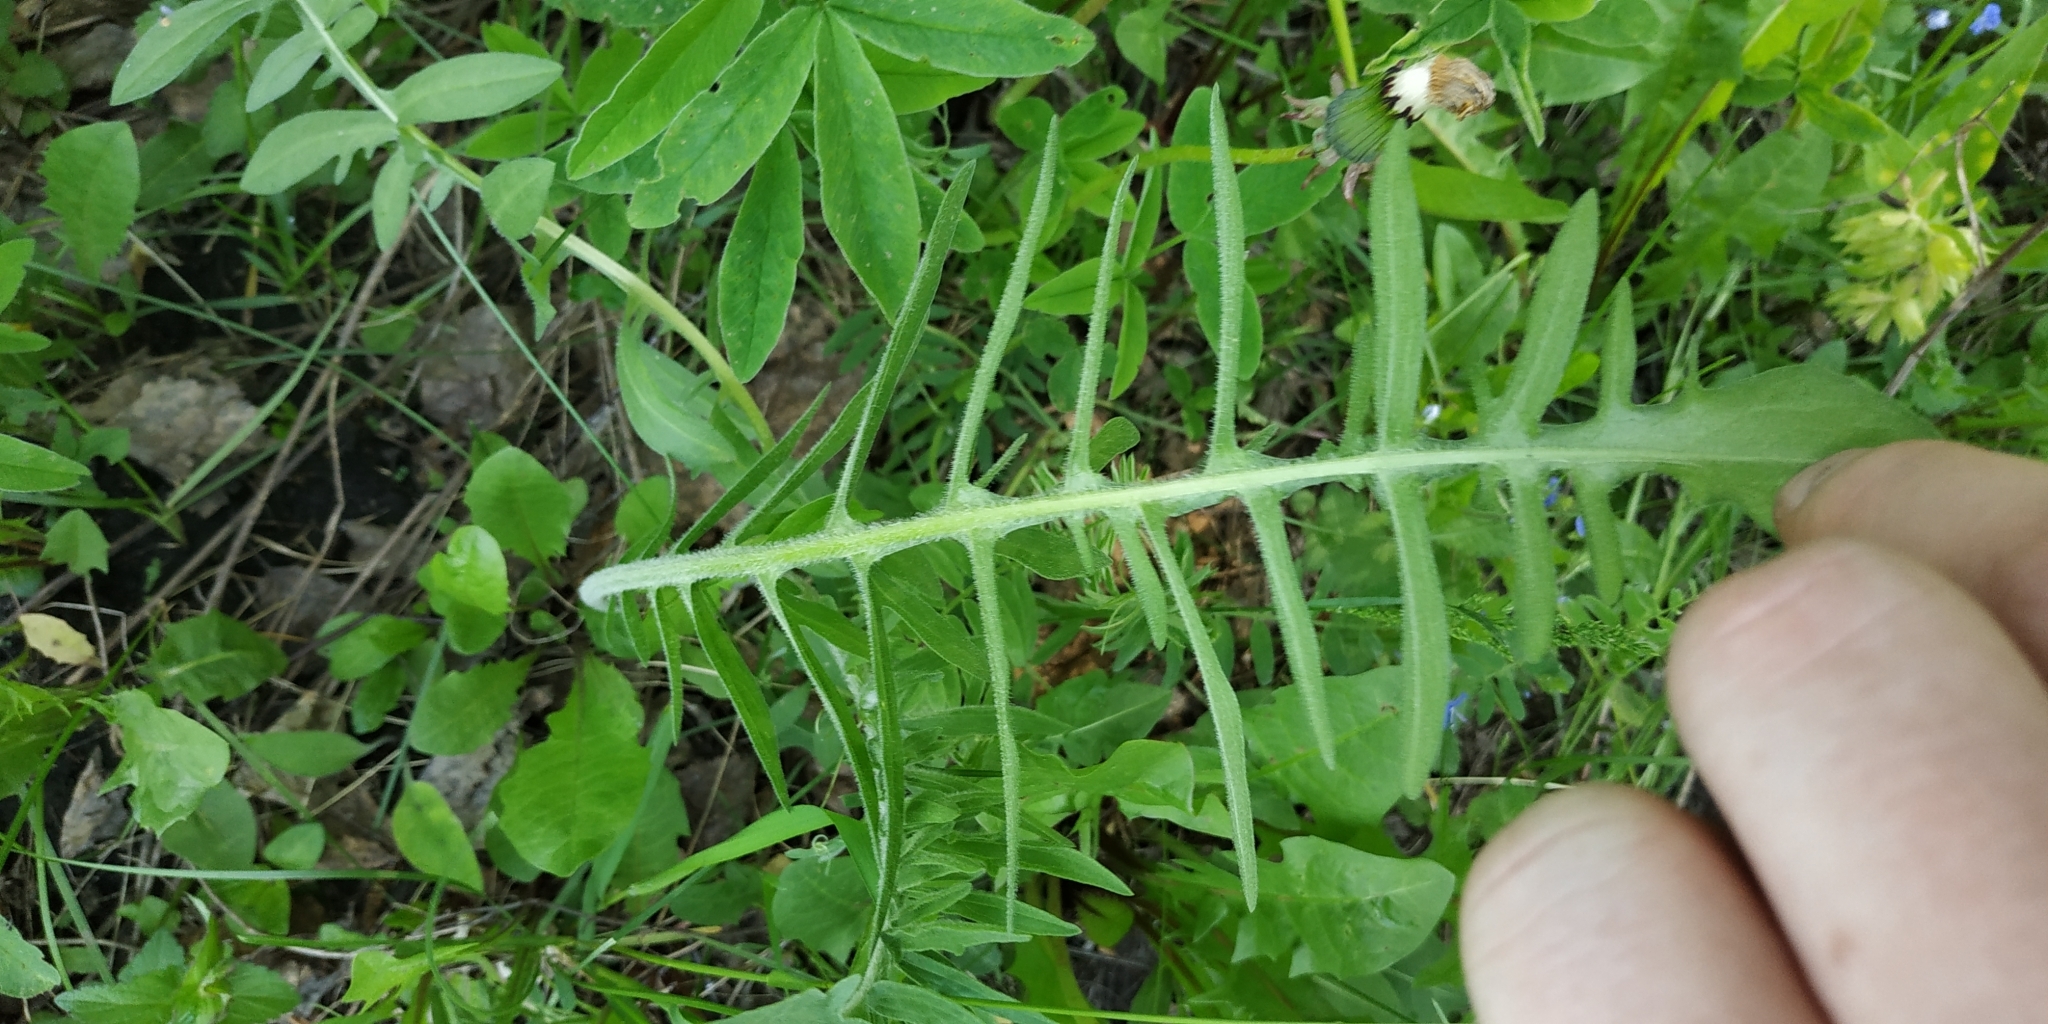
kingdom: Plantae
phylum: Tracheophyta
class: Magnoliopsida
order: Asterales
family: Asteraceae
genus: Centaurea
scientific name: Centaurea scabiosa
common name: Greater knapweed
